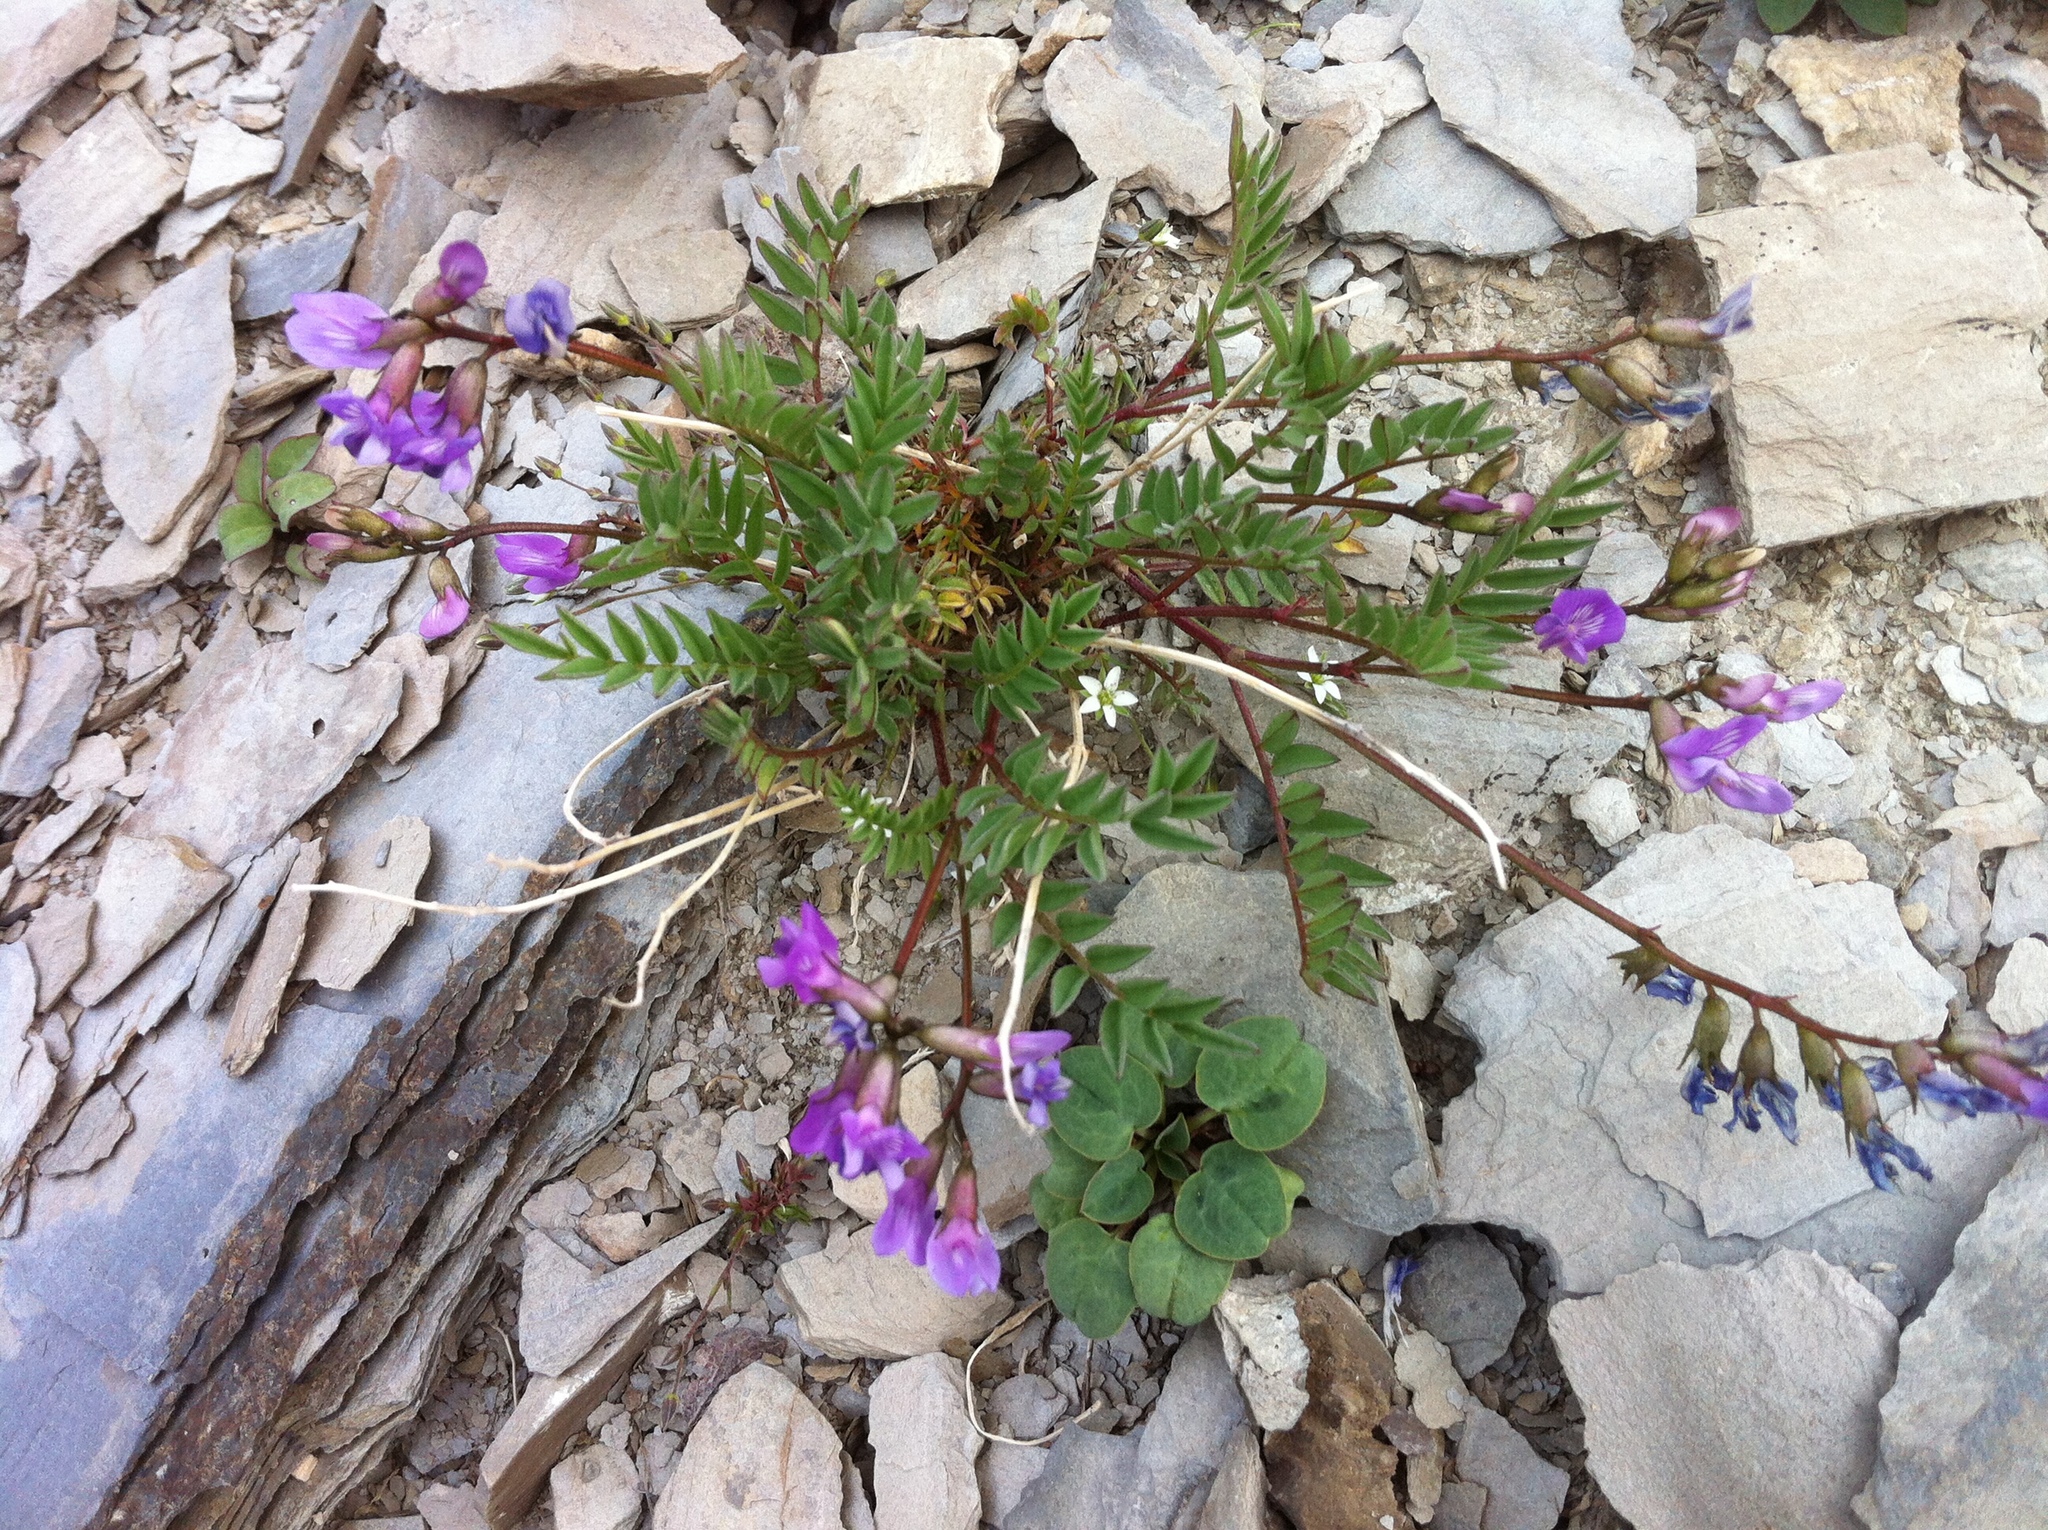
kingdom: Plantae
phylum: Tracheophyta
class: Magnoliopsida
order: Fabales
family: Fabaceae
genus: Astragalus
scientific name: Astragalus bourgovii
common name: Bourgeau's milk-vetch
